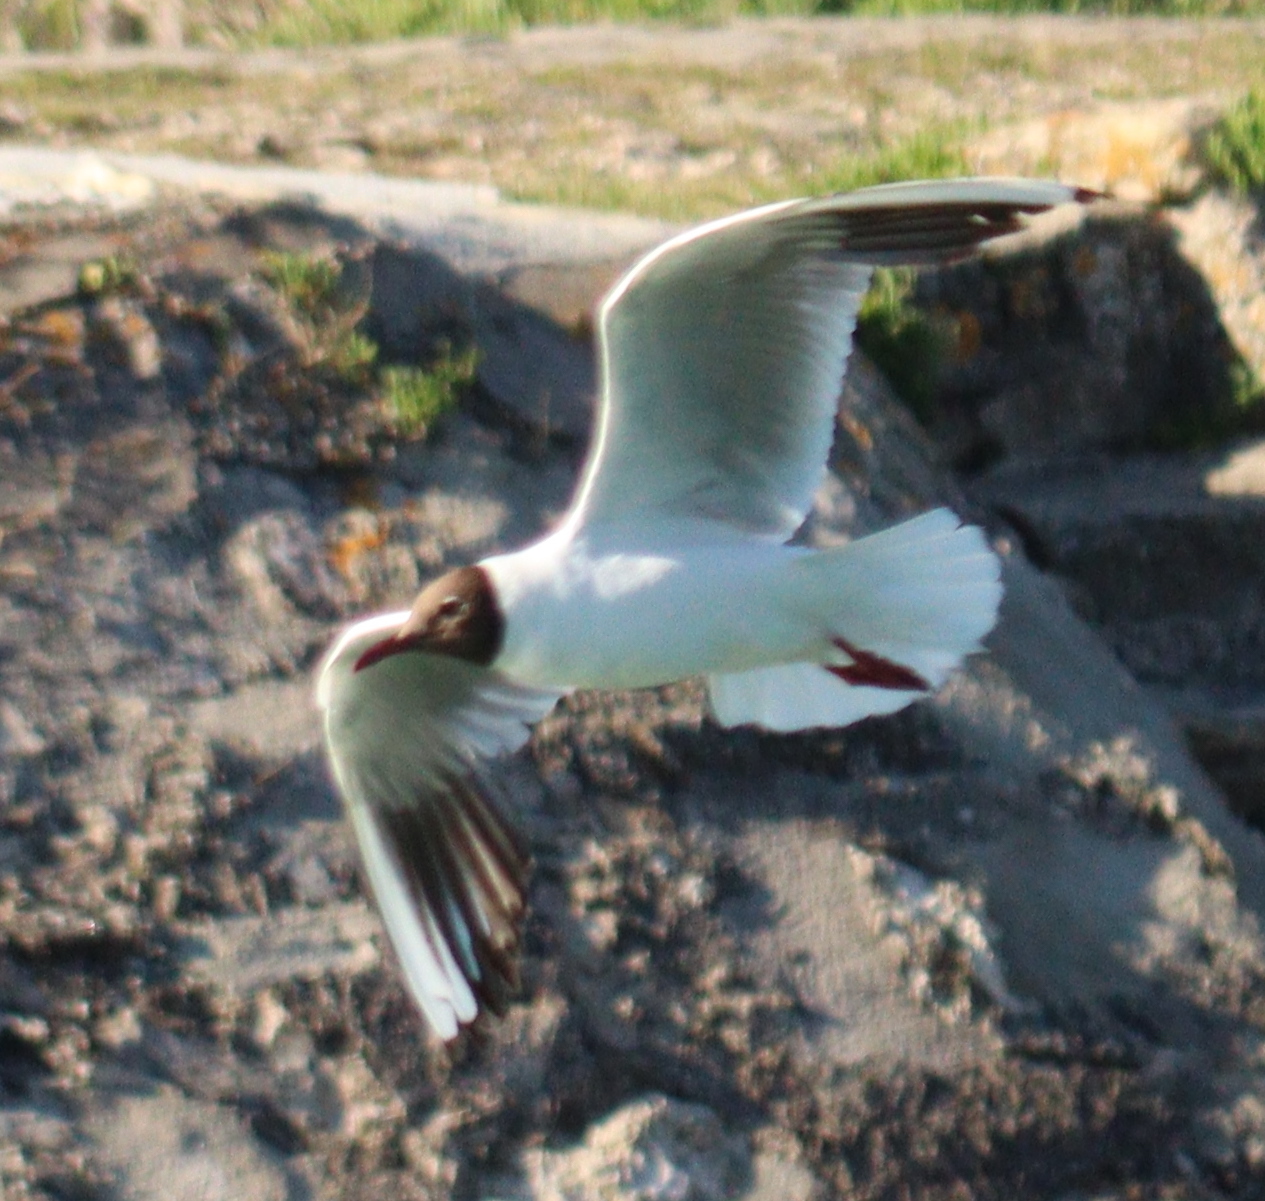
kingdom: Animalia
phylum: Chordata
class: Aves
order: Charadriiformes
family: Laridae
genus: Chroicocephalus
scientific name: Chroicocephalus ridibundus
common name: Black-headed gull
